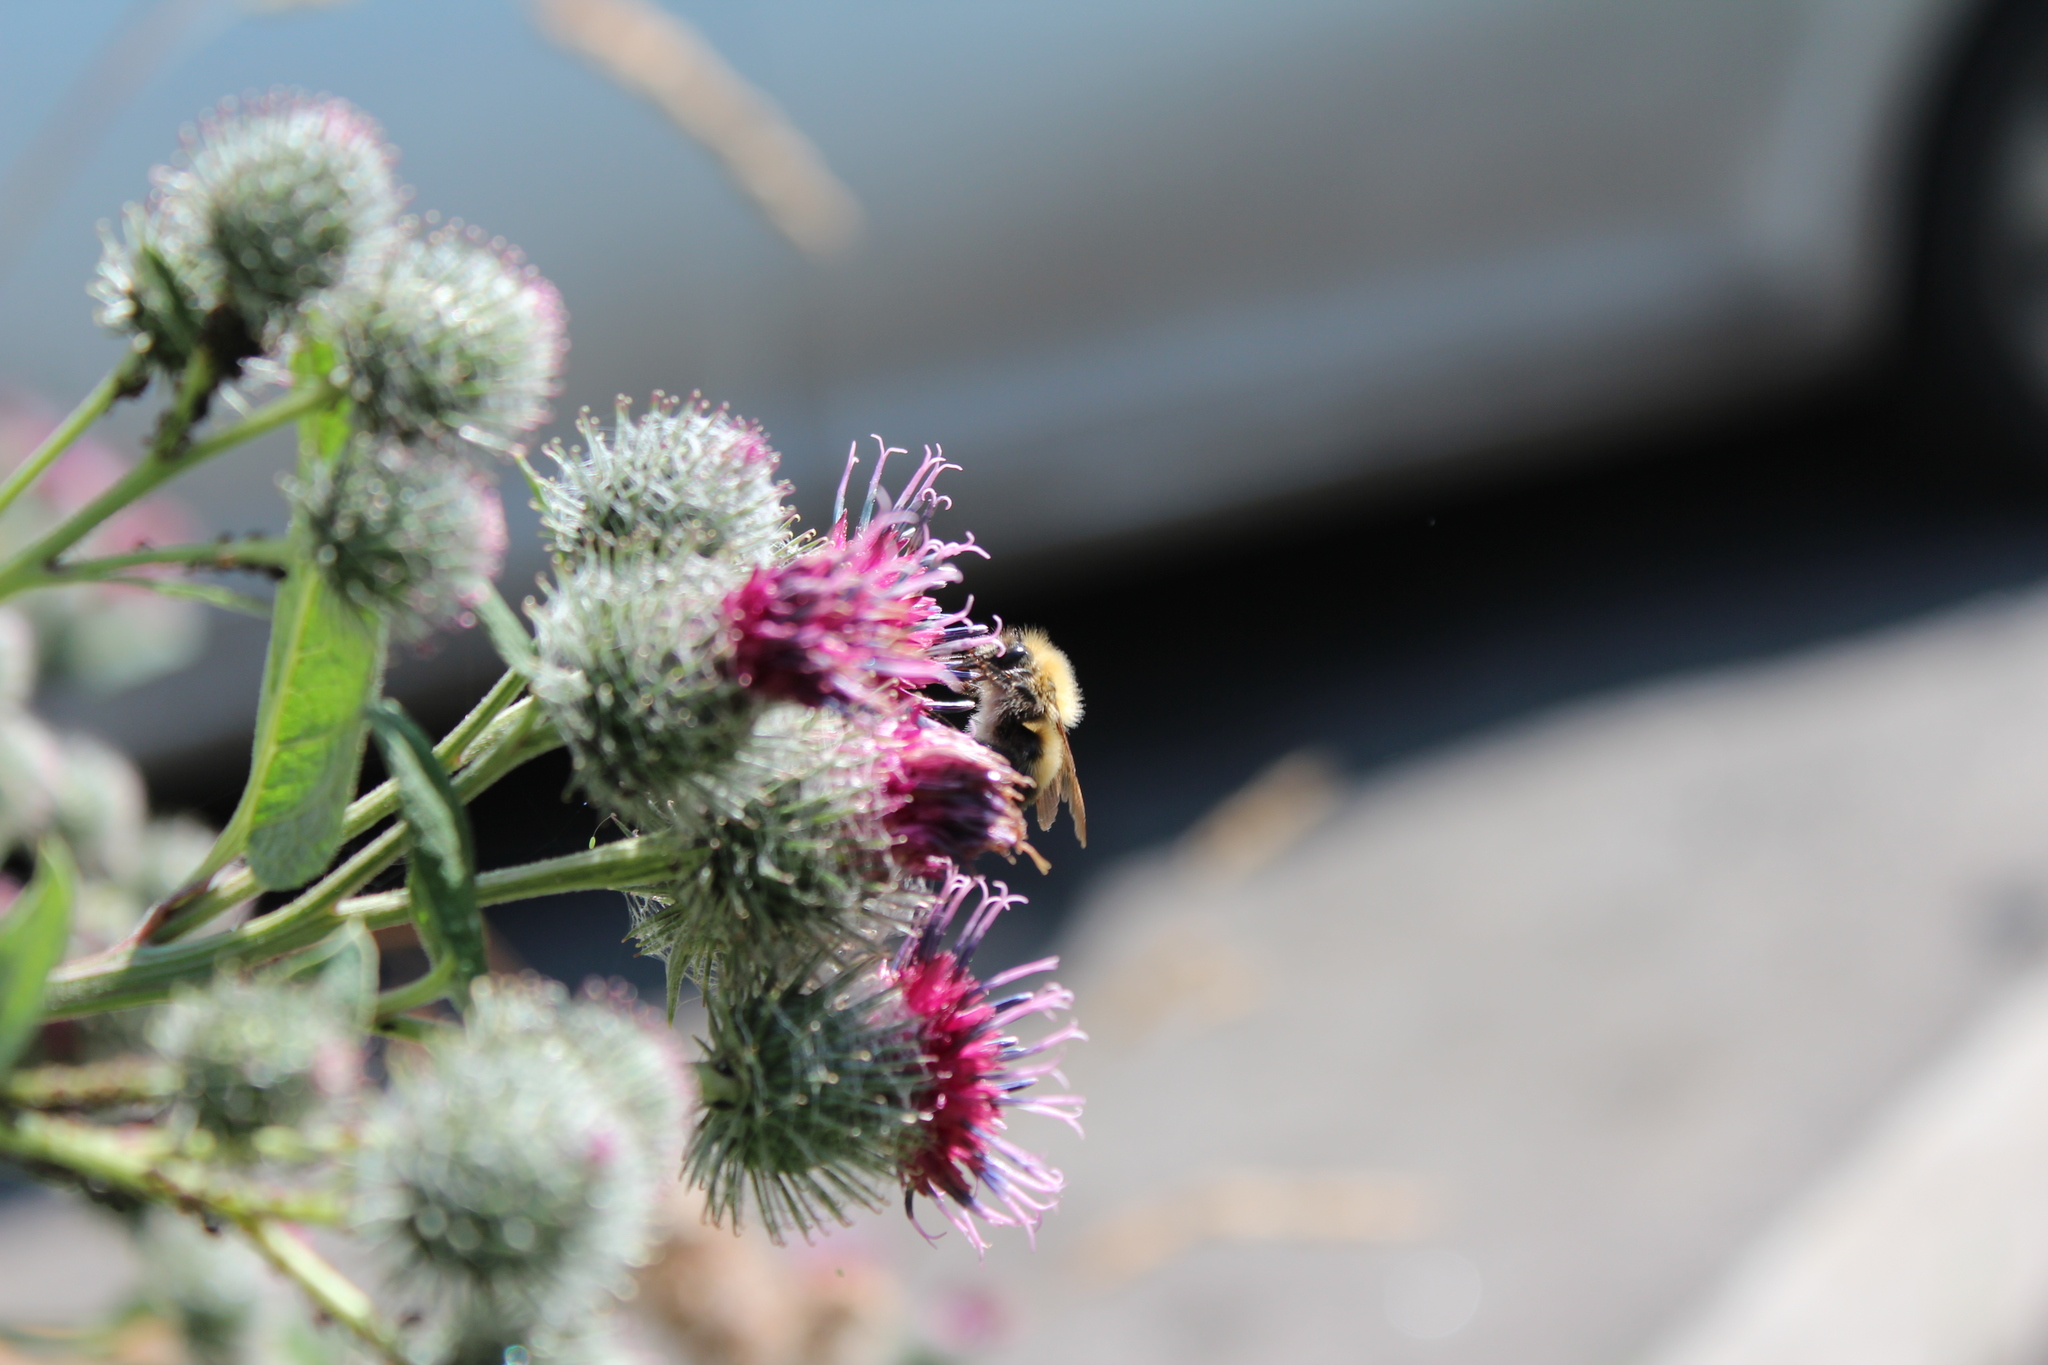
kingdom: Animalia
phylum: Arthropoda
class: Insecta
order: Hymenoptera
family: Apidae
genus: Bombus
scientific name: Bombus hypnorum
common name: New garden bumblebee
